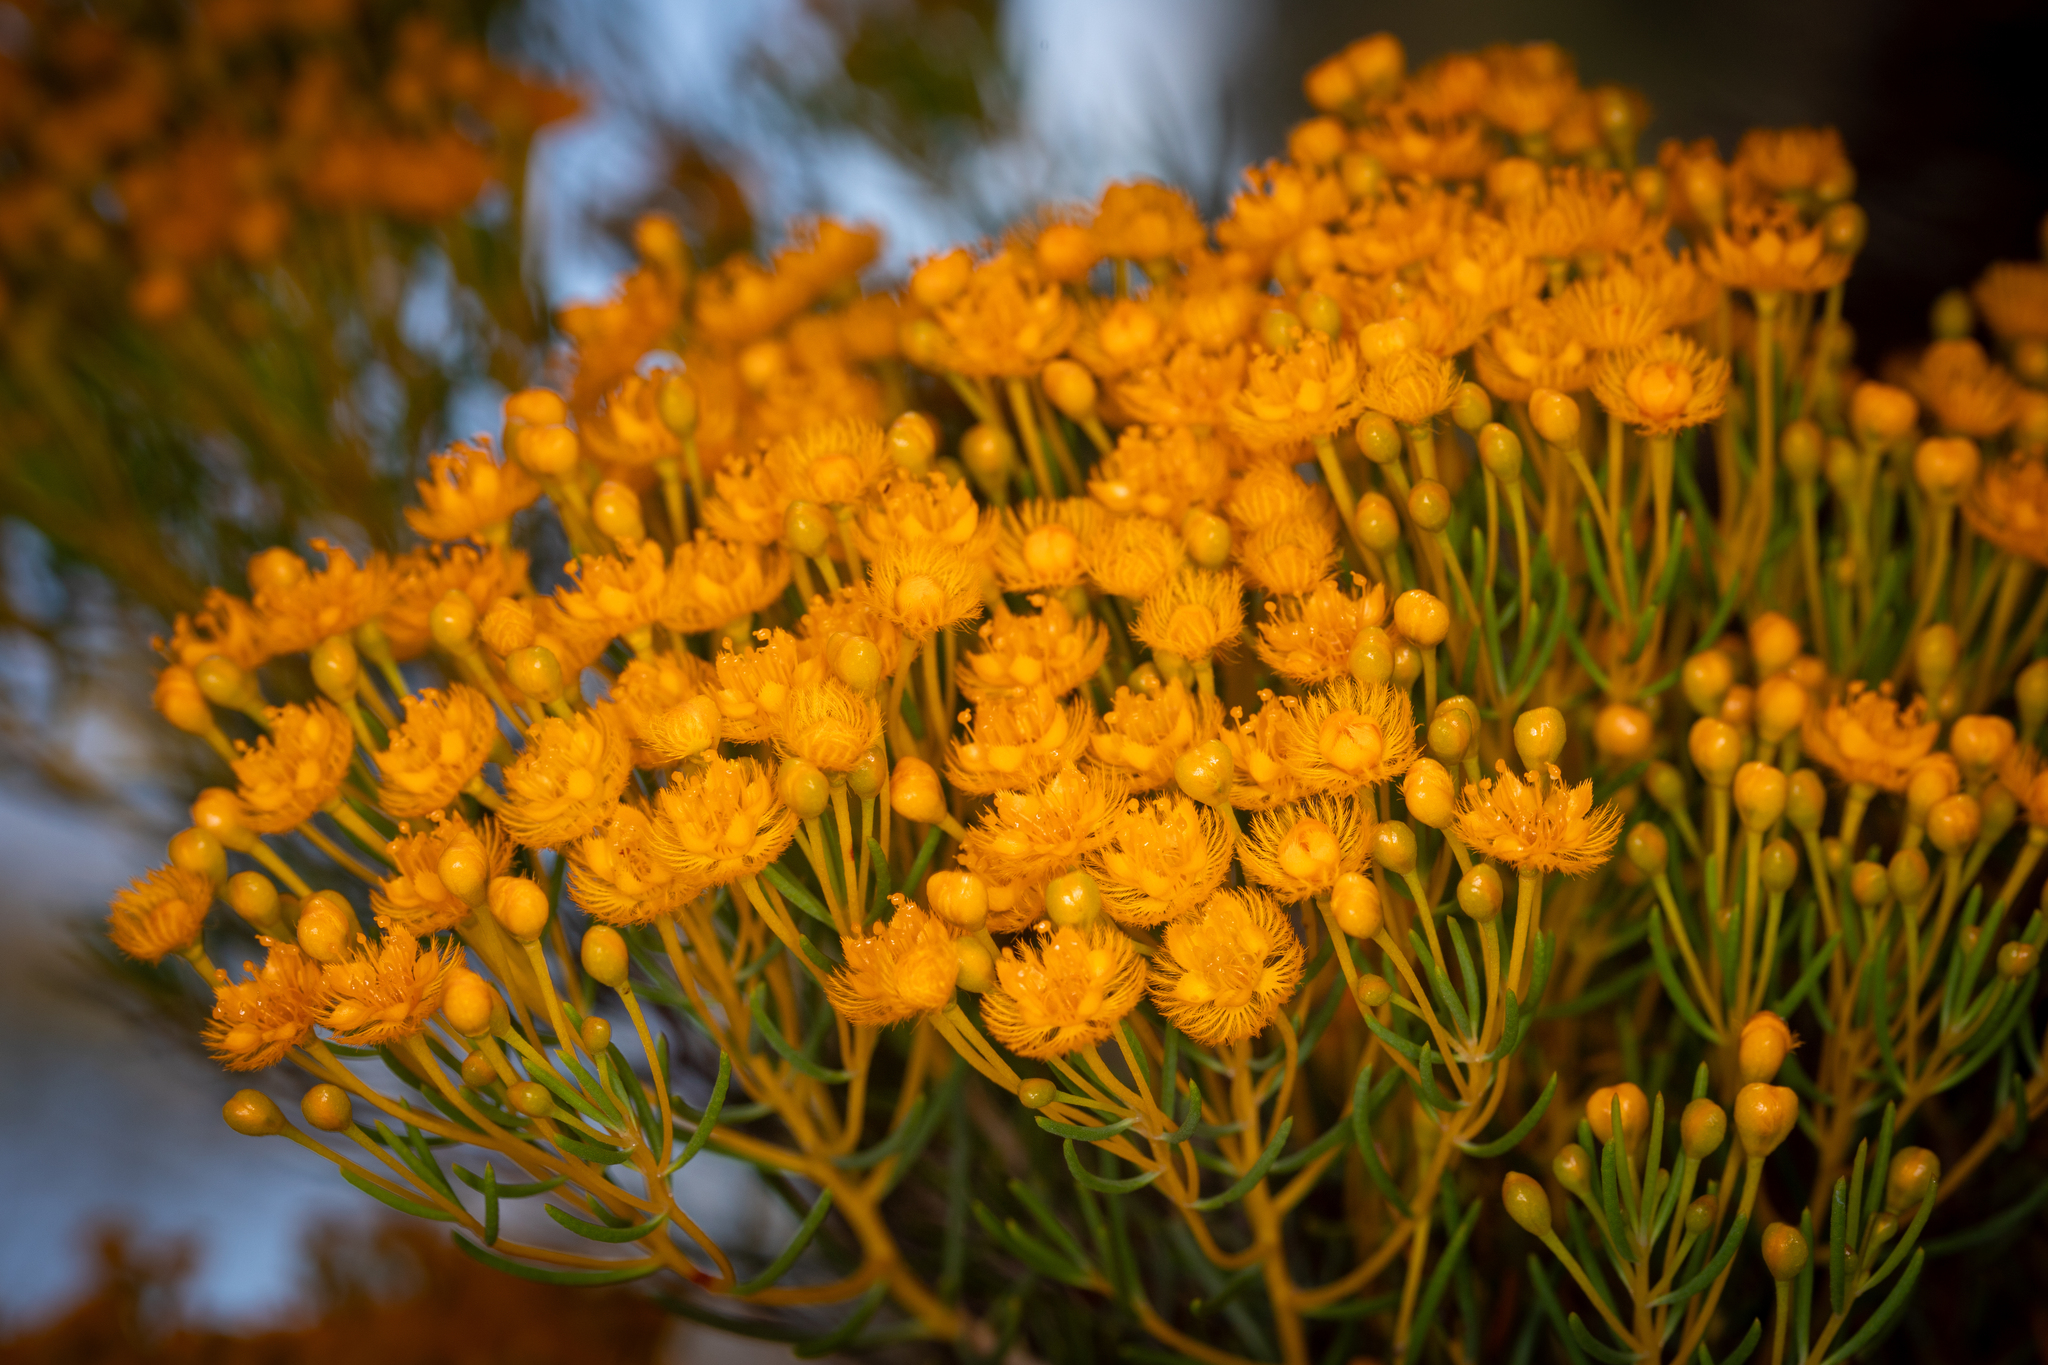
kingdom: Plantae
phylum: Tracheophyta
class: Magnoliopsida
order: Myrtales
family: Myrtaceae
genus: Verticordia
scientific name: Verticordia nitens
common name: Christmas morrison
